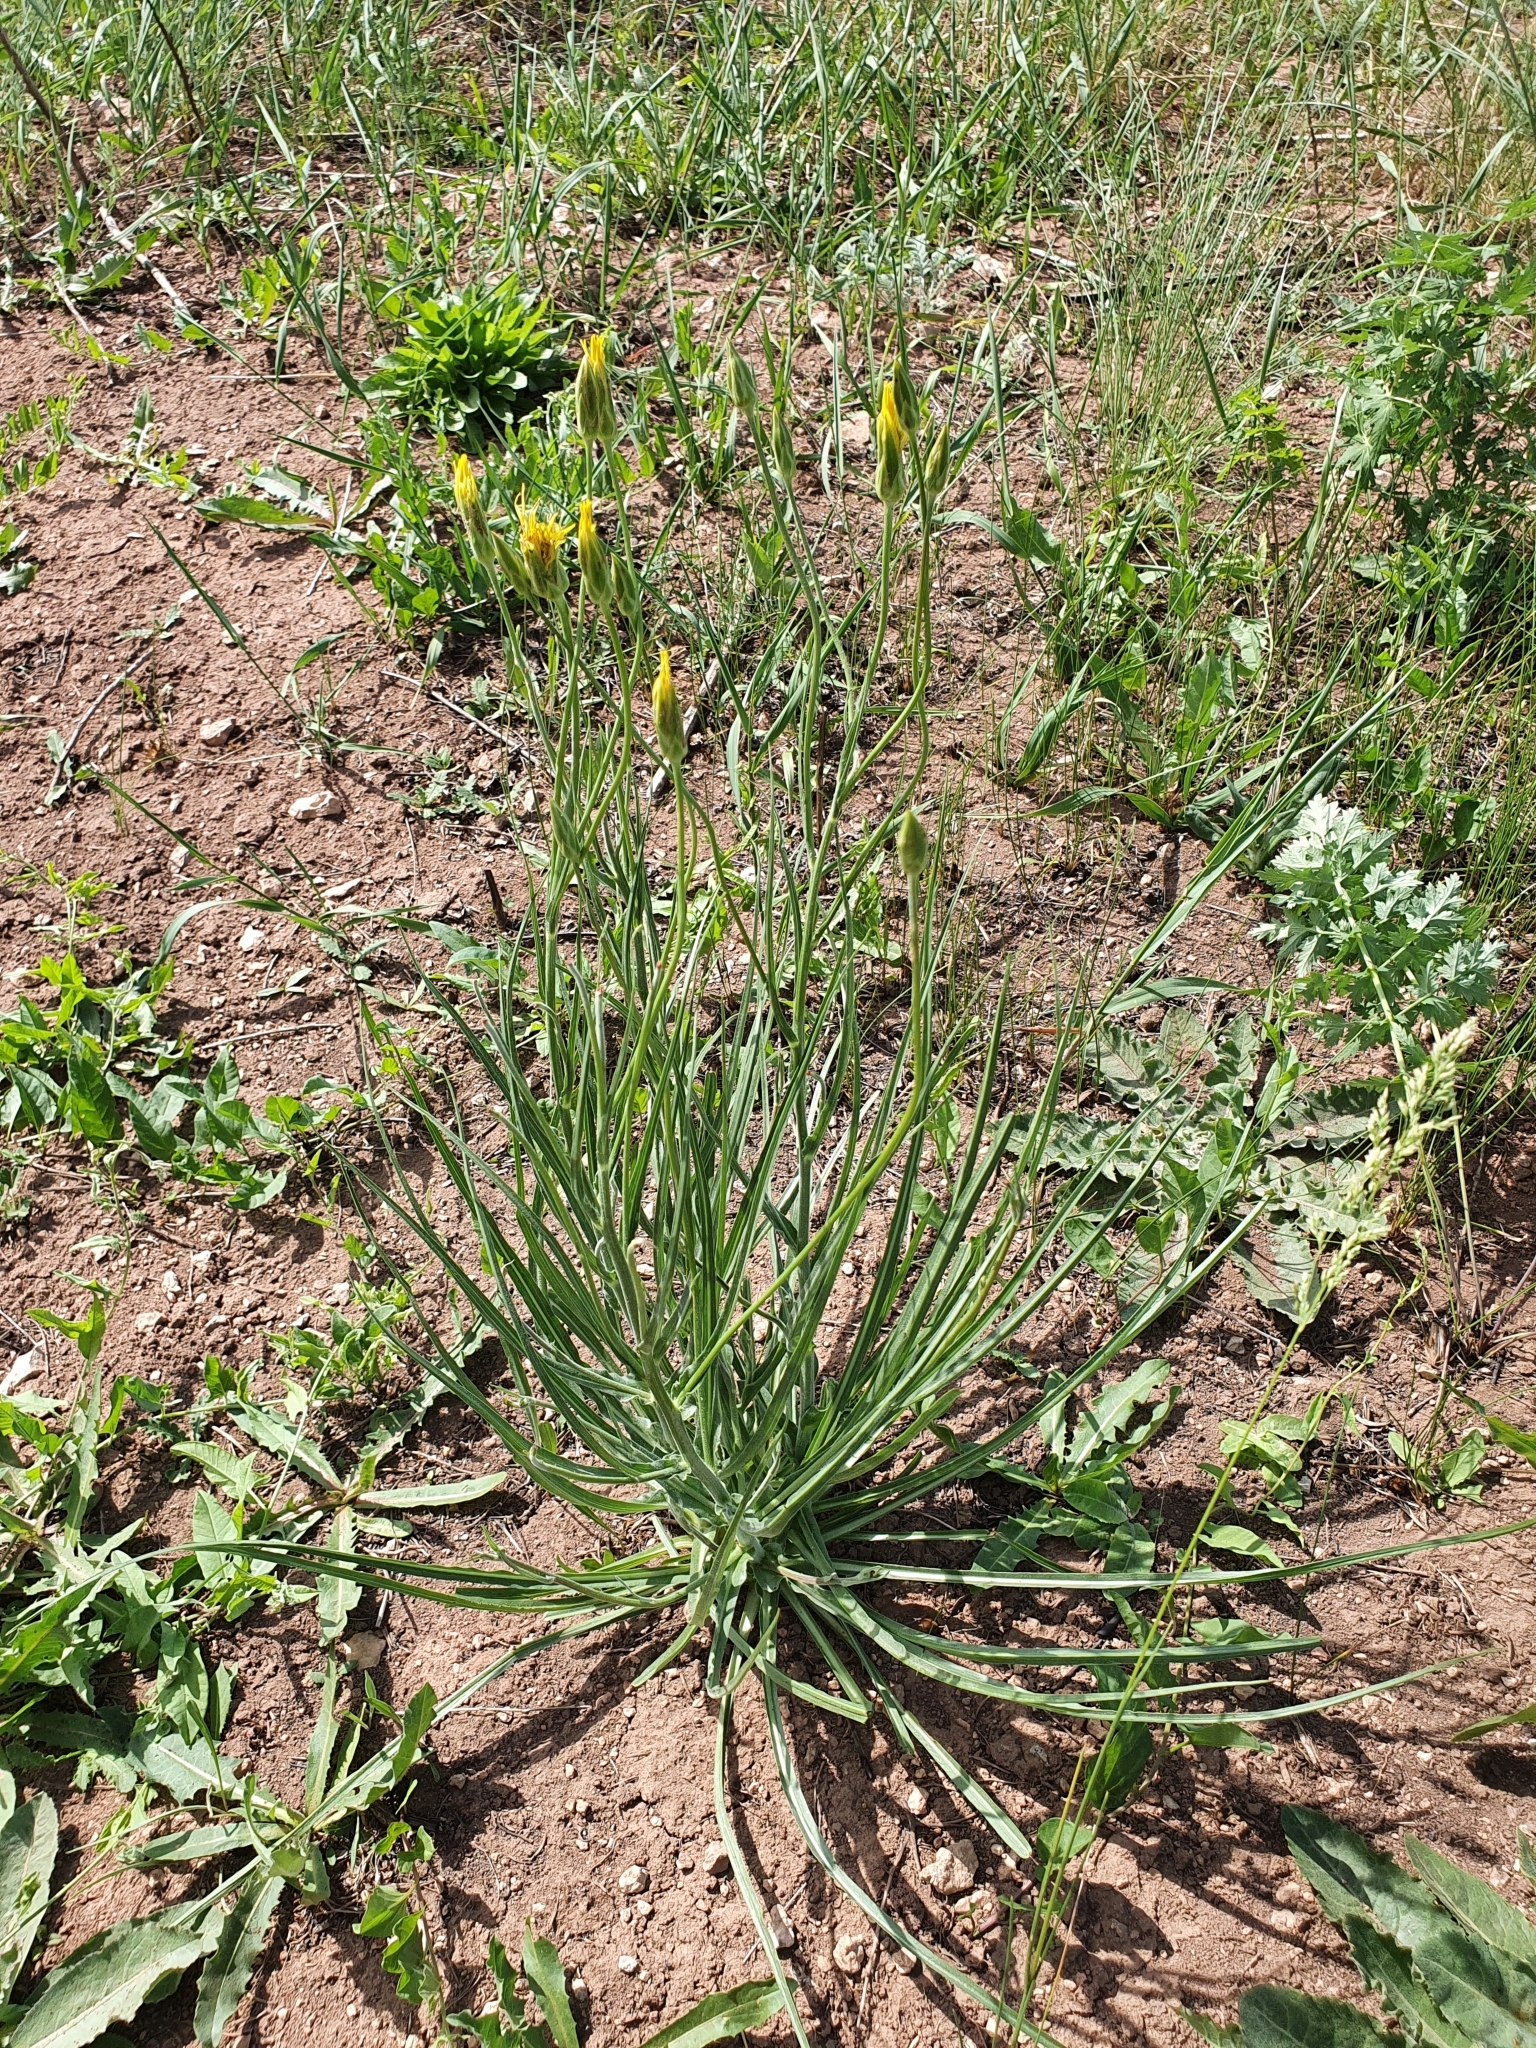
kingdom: Plantae
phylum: Tracheophyta
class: Magnoliopsida
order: Asterales
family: Asteraceae
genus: Pseudopodospermum
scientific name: Pseudopodospermum strictum
